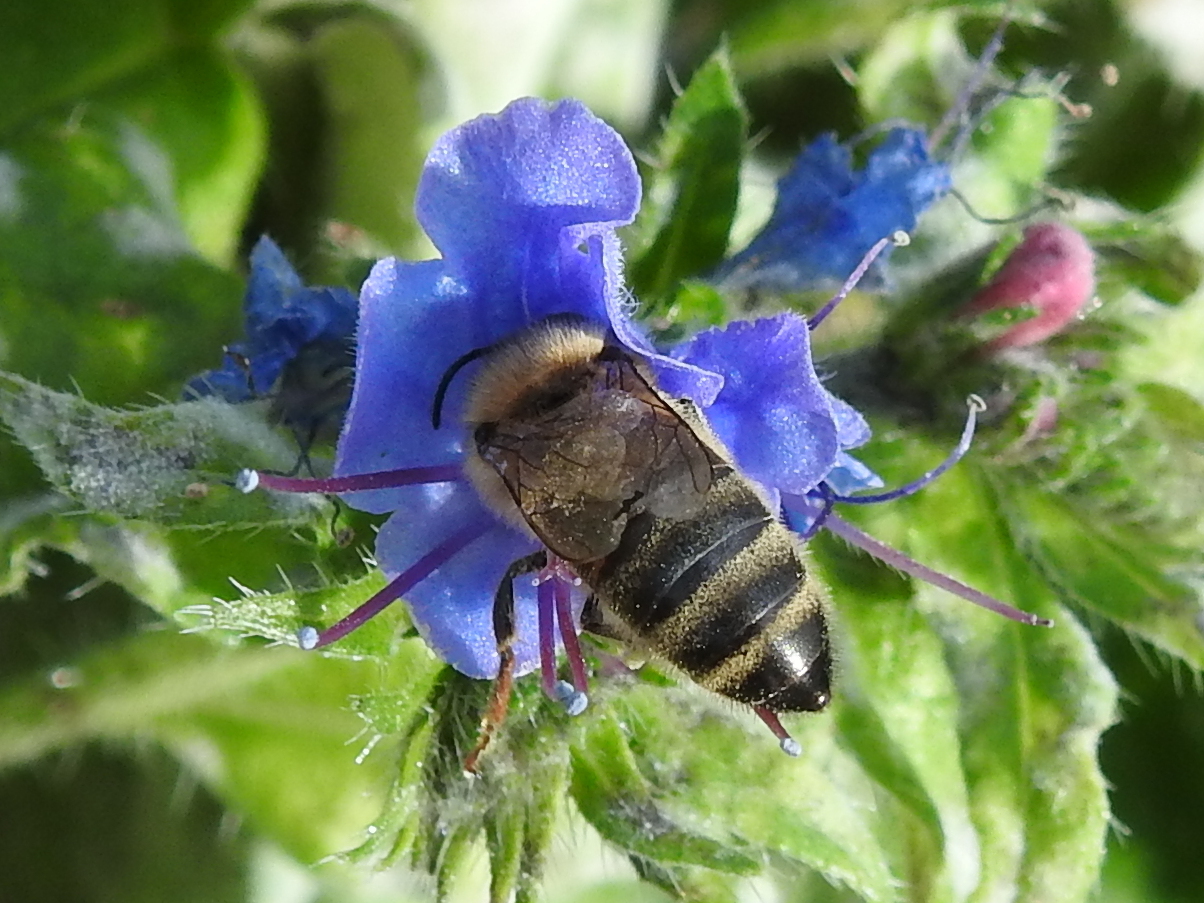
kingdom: Animalia
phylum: Arthropoda
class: Insecta
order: Hymenoptera
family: Apidae
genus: Apis
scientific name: Apis mellifera
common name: Honey bee
